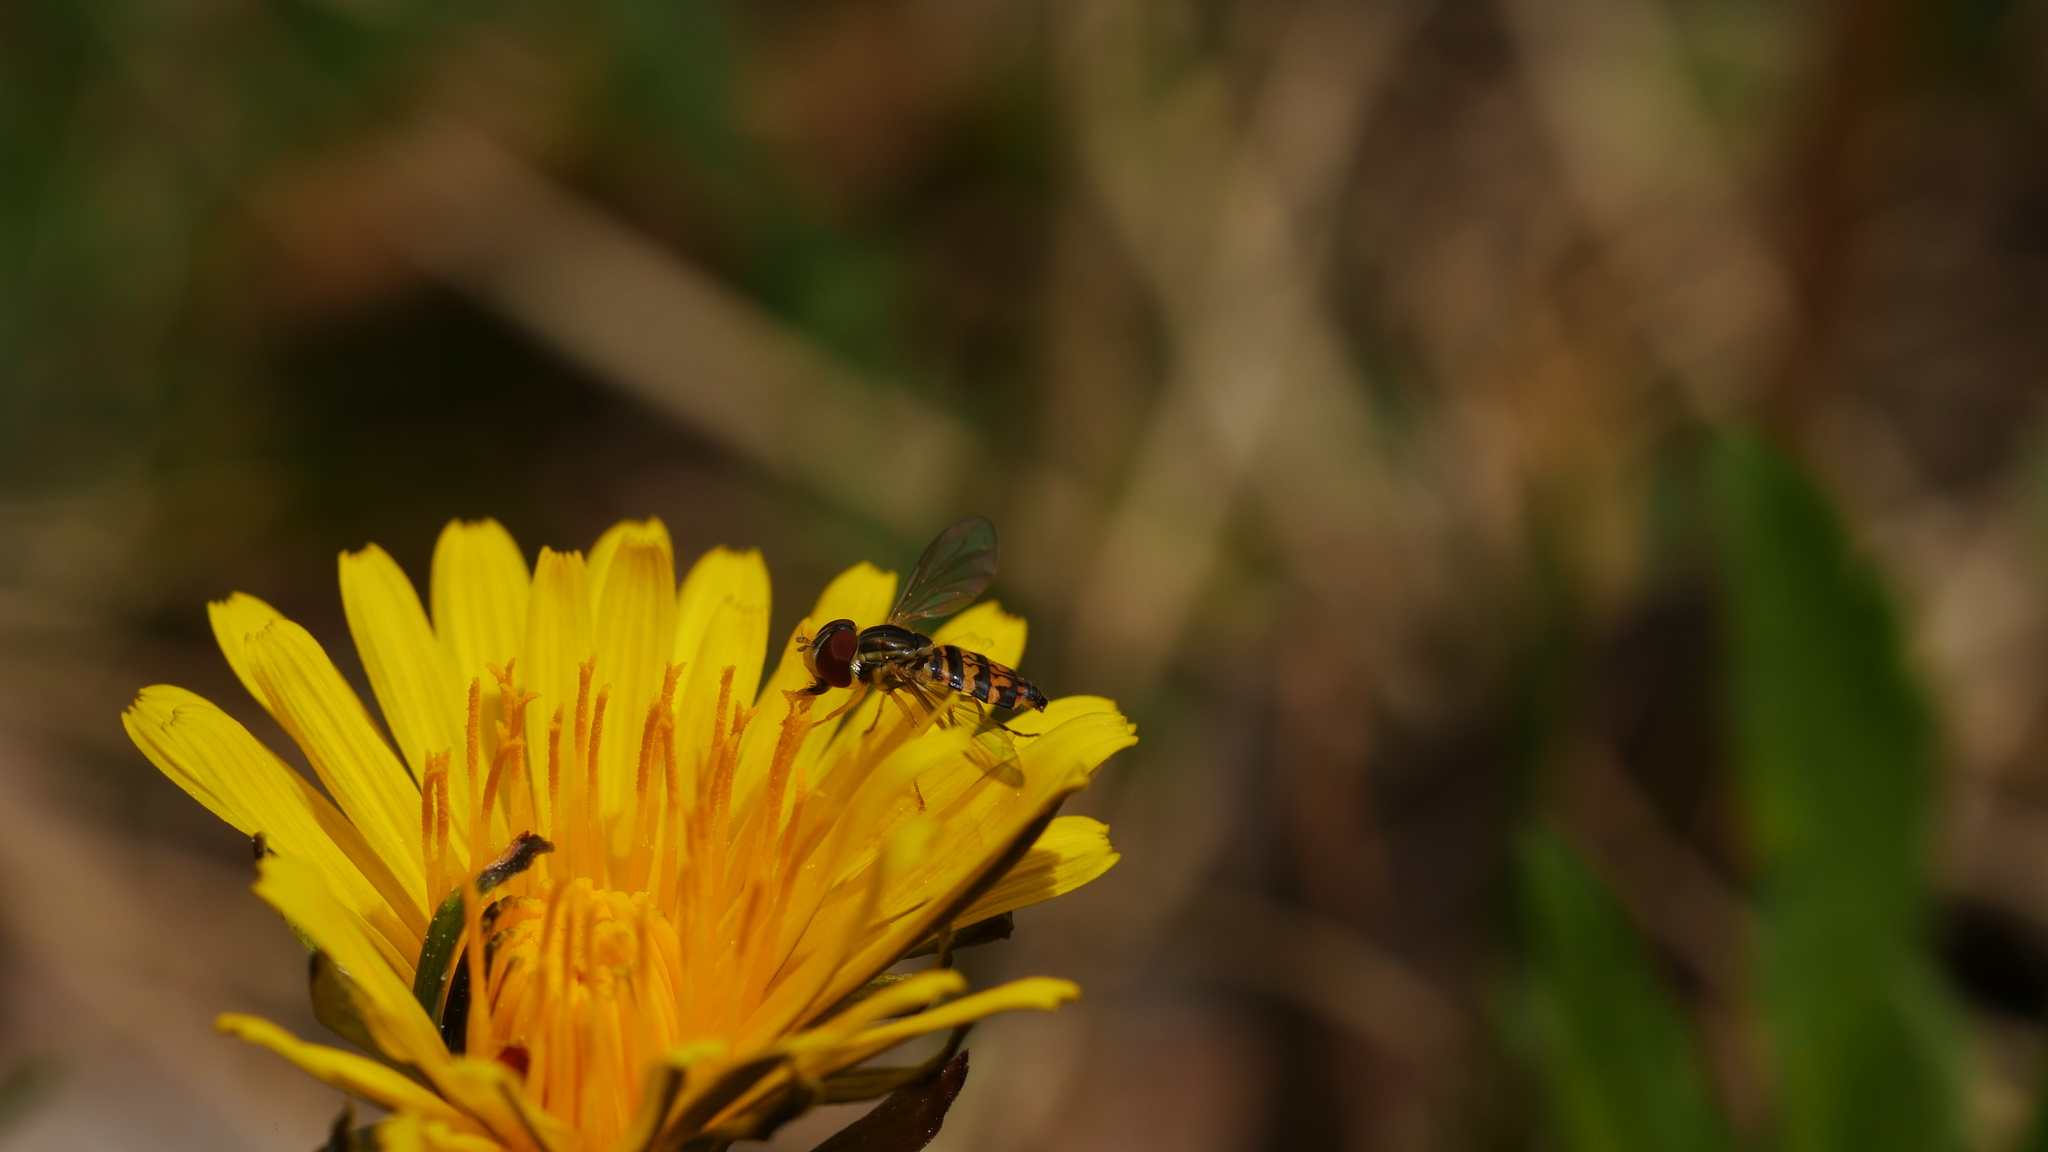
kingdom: Animalia
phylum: Arthropoda
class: Insecta
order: Diptera
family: Syrphidae
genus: Toxomerus
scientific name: Toxomerus geminatus
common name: Eastern calligrapher
